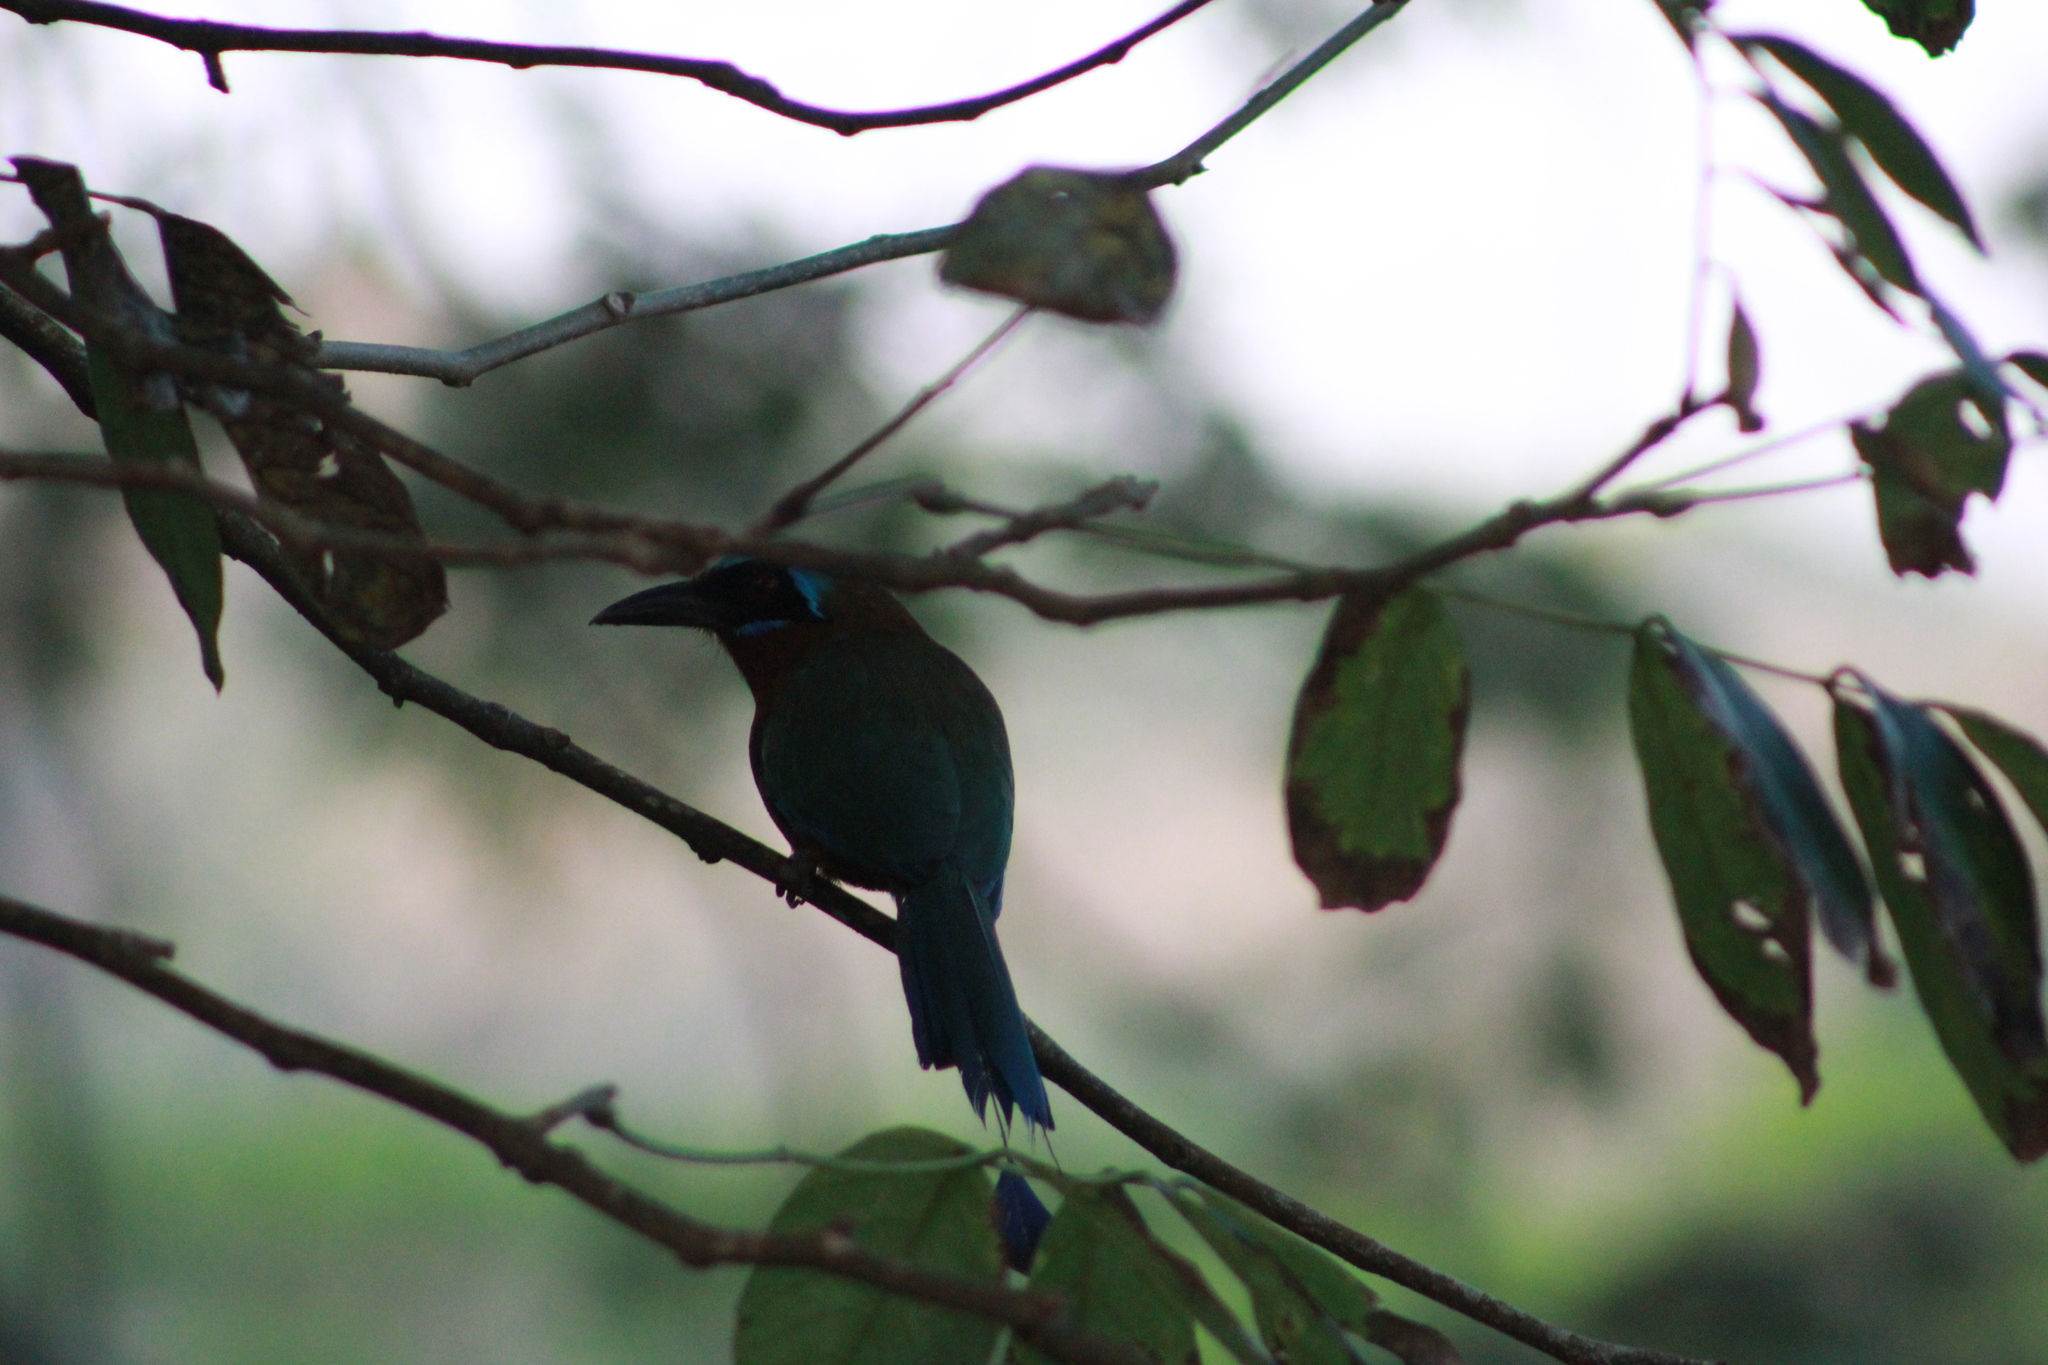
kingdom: Animalia
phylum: Chordata
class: Aves
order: Coraciiformes
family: Momotidae
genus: Momotus
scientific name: Momotus bahamensis
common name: Trinidad motmot
